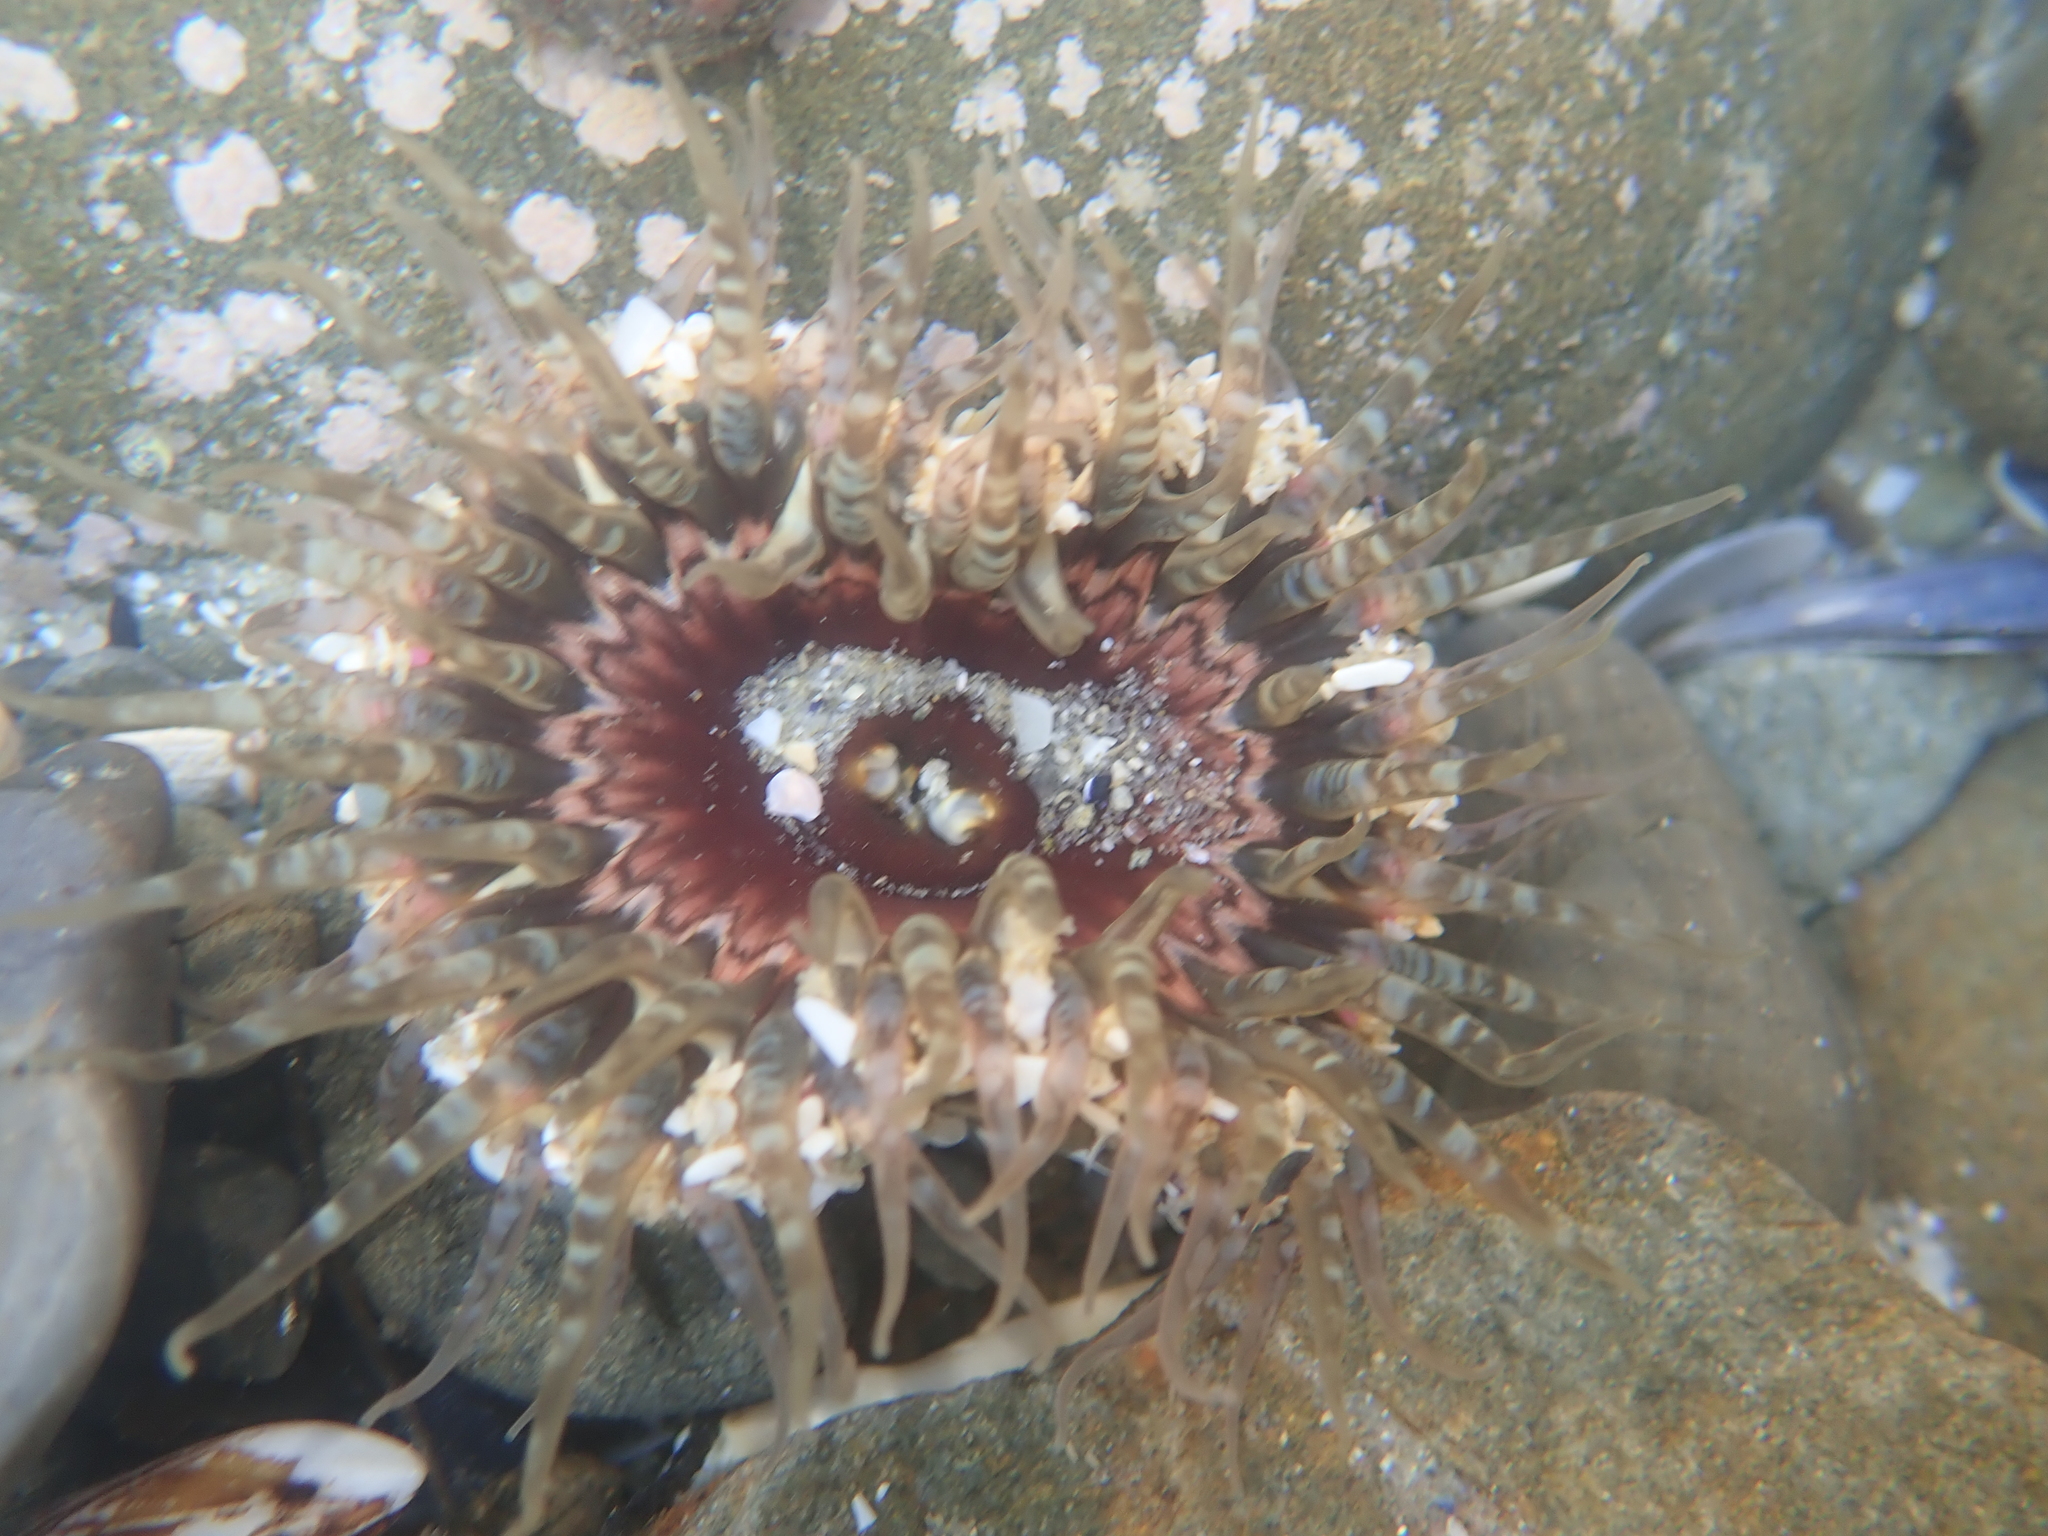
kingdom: Animalia
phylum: Cnidaria
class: Anthozoa
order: Actiniaria
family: Actiniidae
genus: Oulactis
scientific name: Oulactis muscosa
